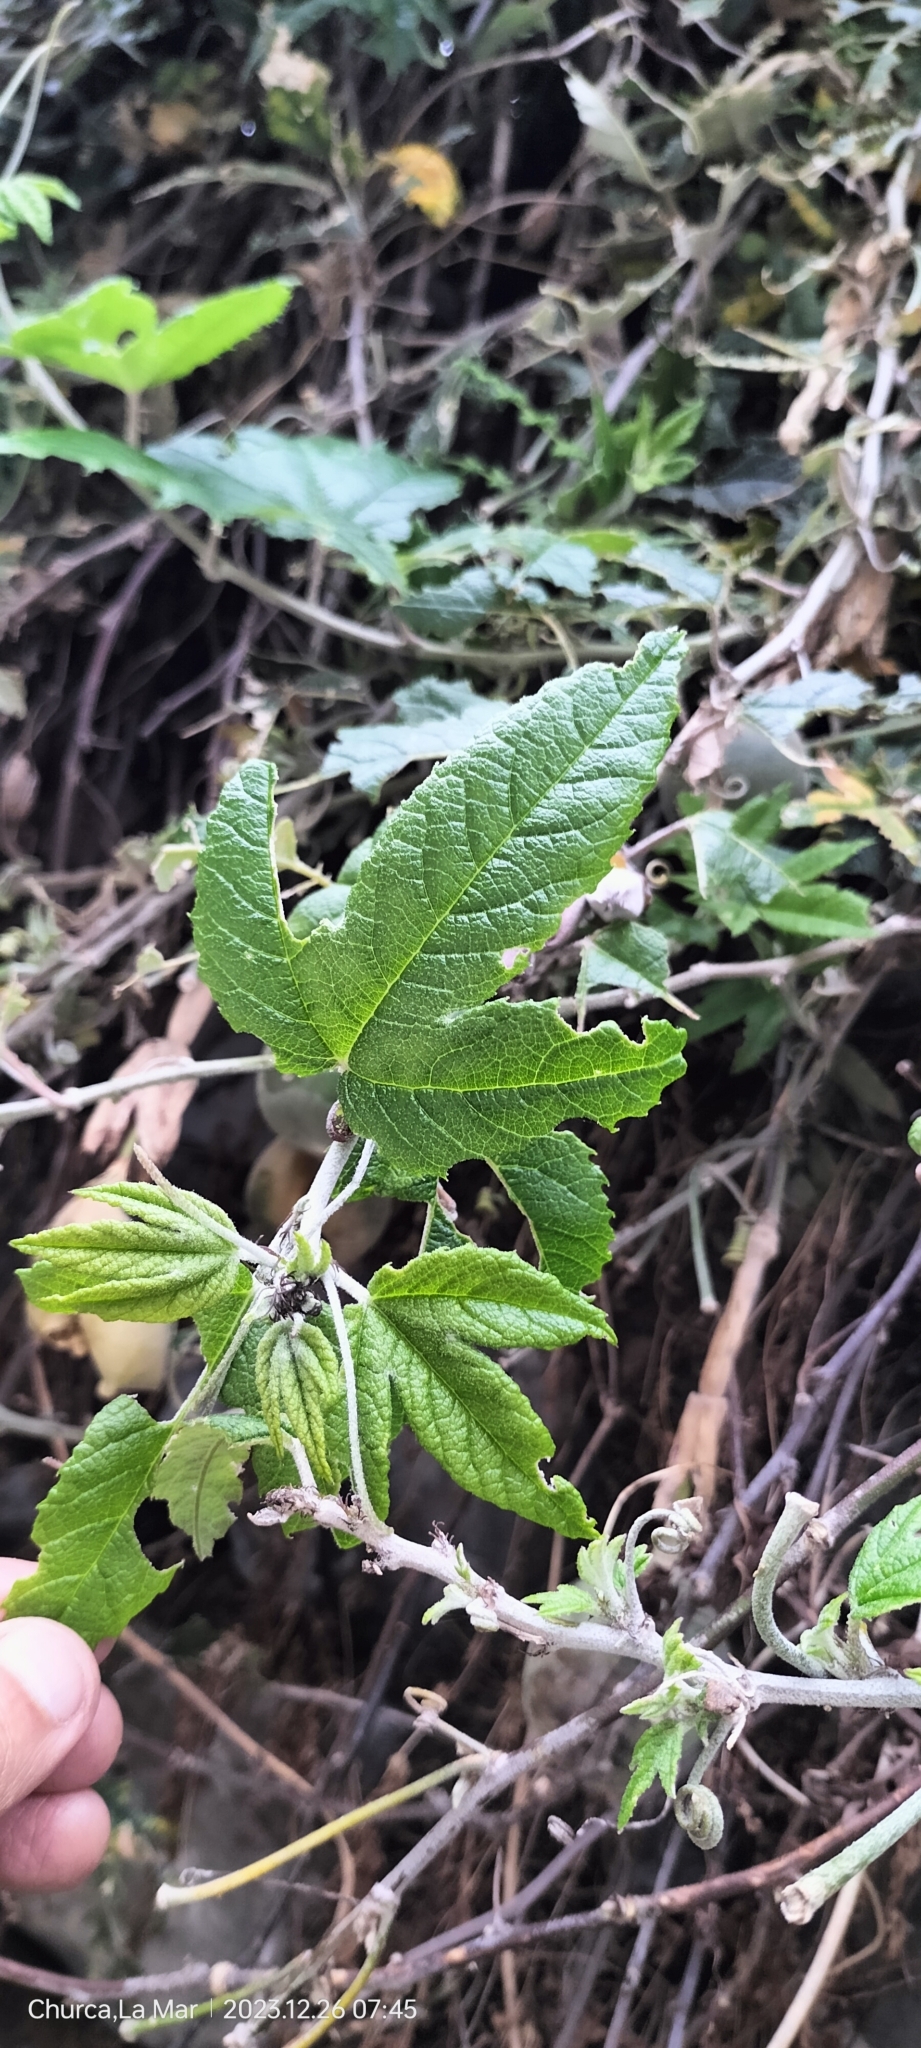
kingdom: Plantae
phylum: Tracheophyta
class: Magnoliopsida
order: Malpighiales
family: Passifloraceae
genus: Passiflora
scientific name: Passiflora pinnatistipula
